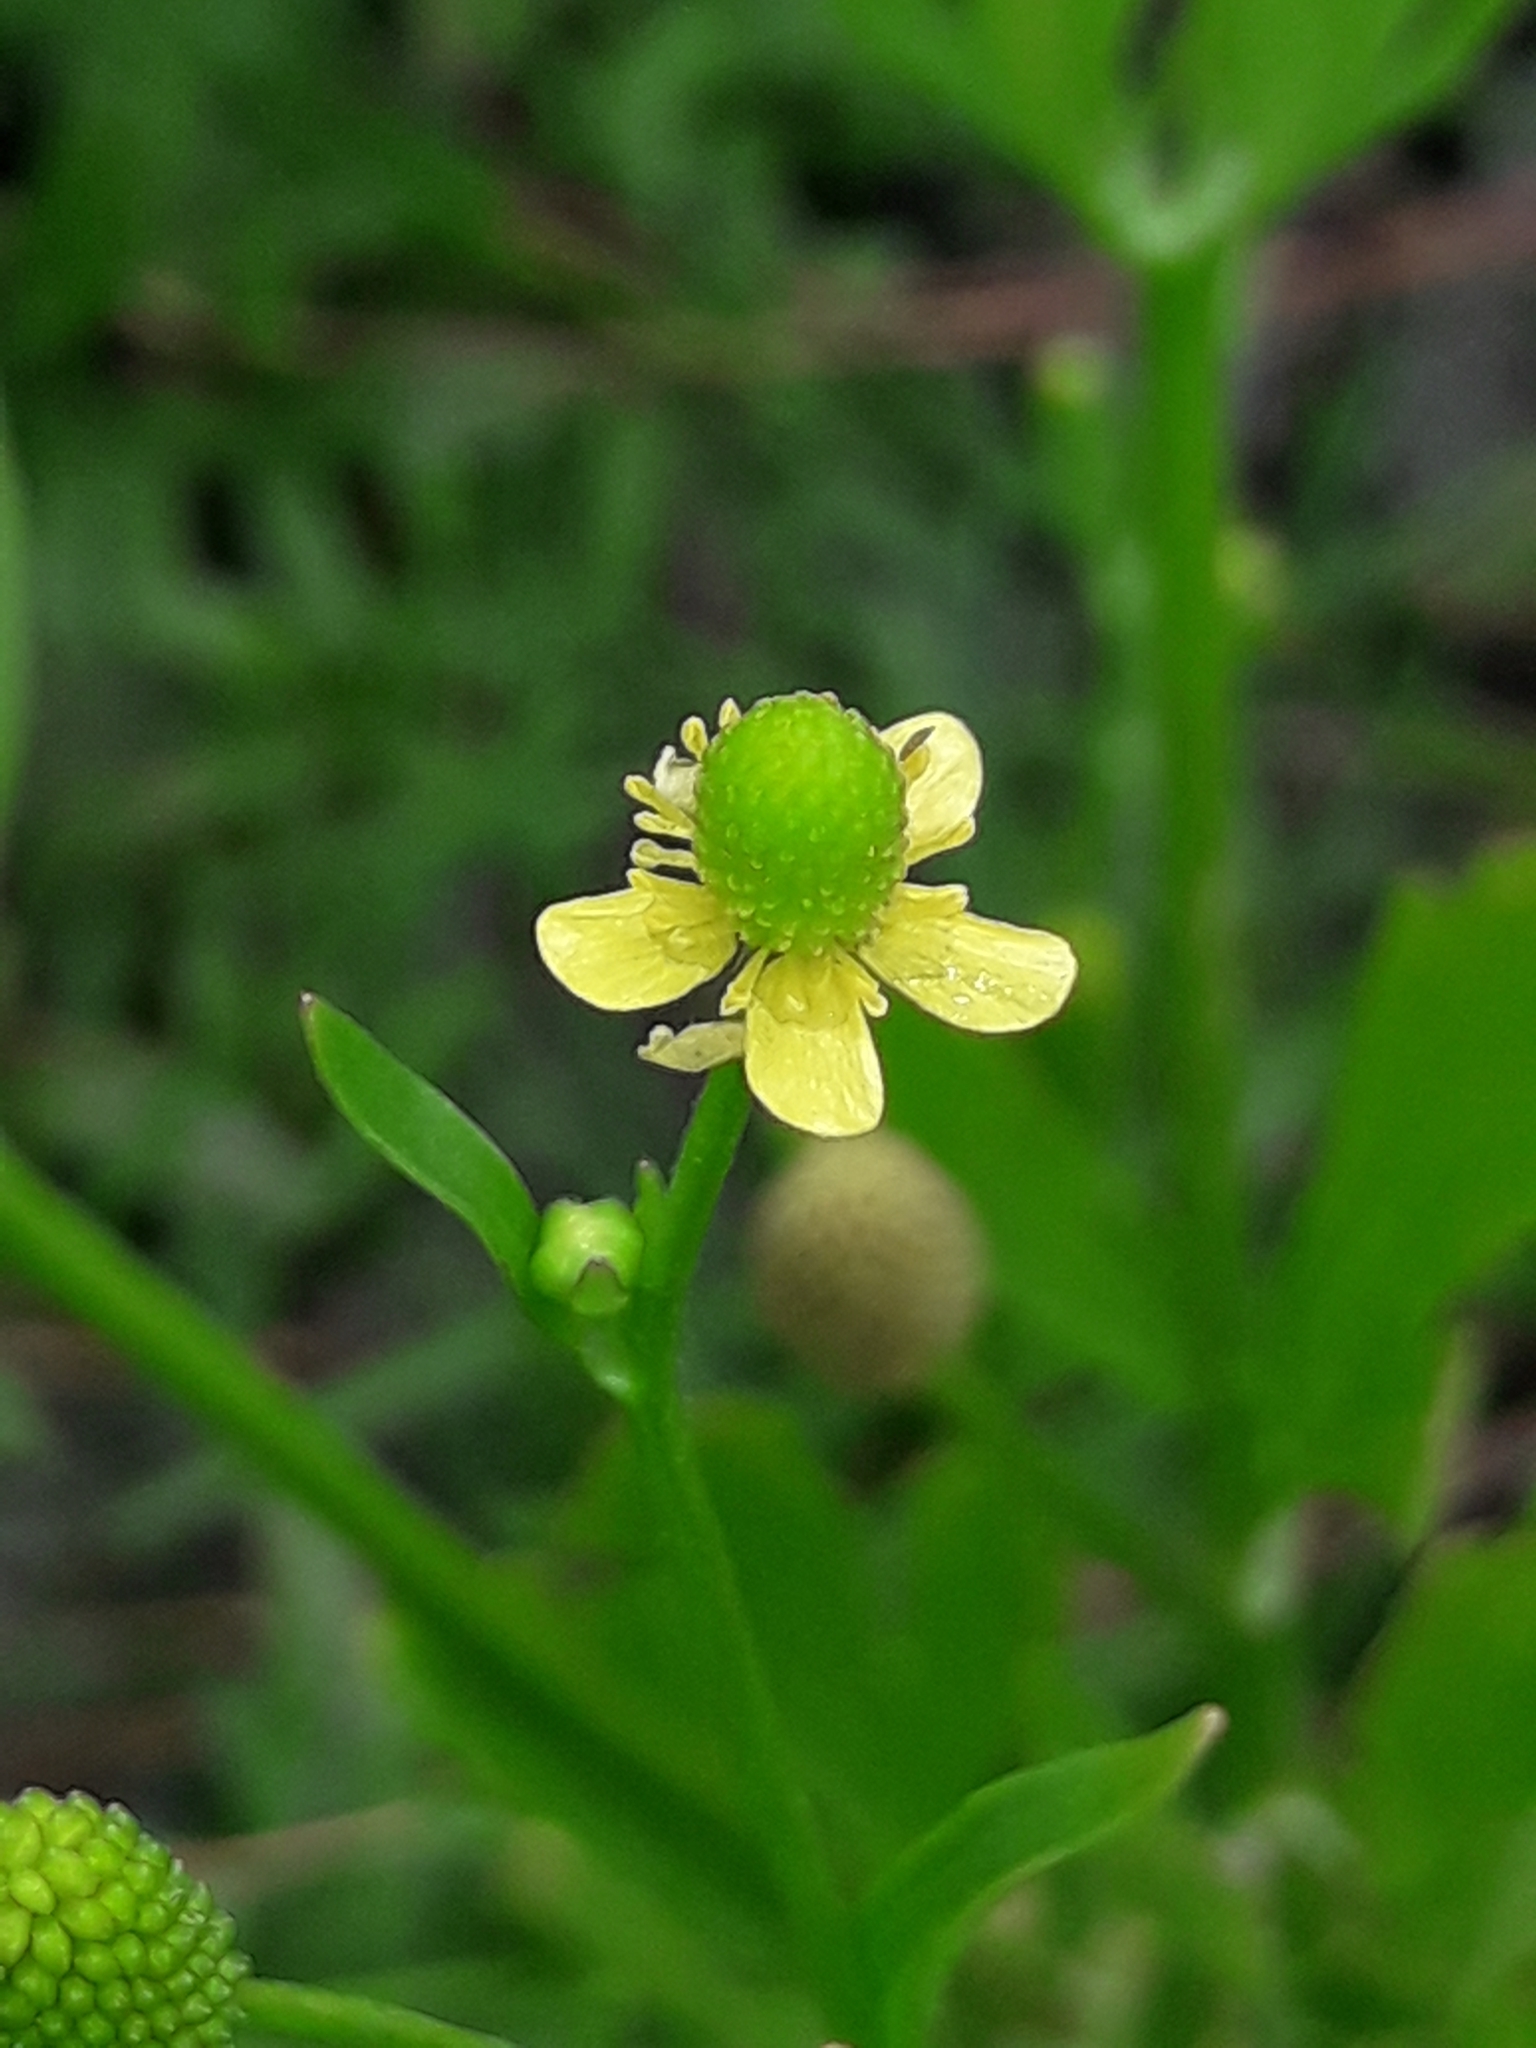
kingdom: Plantae
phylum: Tracheophyta
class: Magnoliopsida
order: Ranunculales
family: Ranunculaceae
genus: Ranunculus
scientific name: Ranunculus sceleratus
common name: Celery-leaved buttercup
